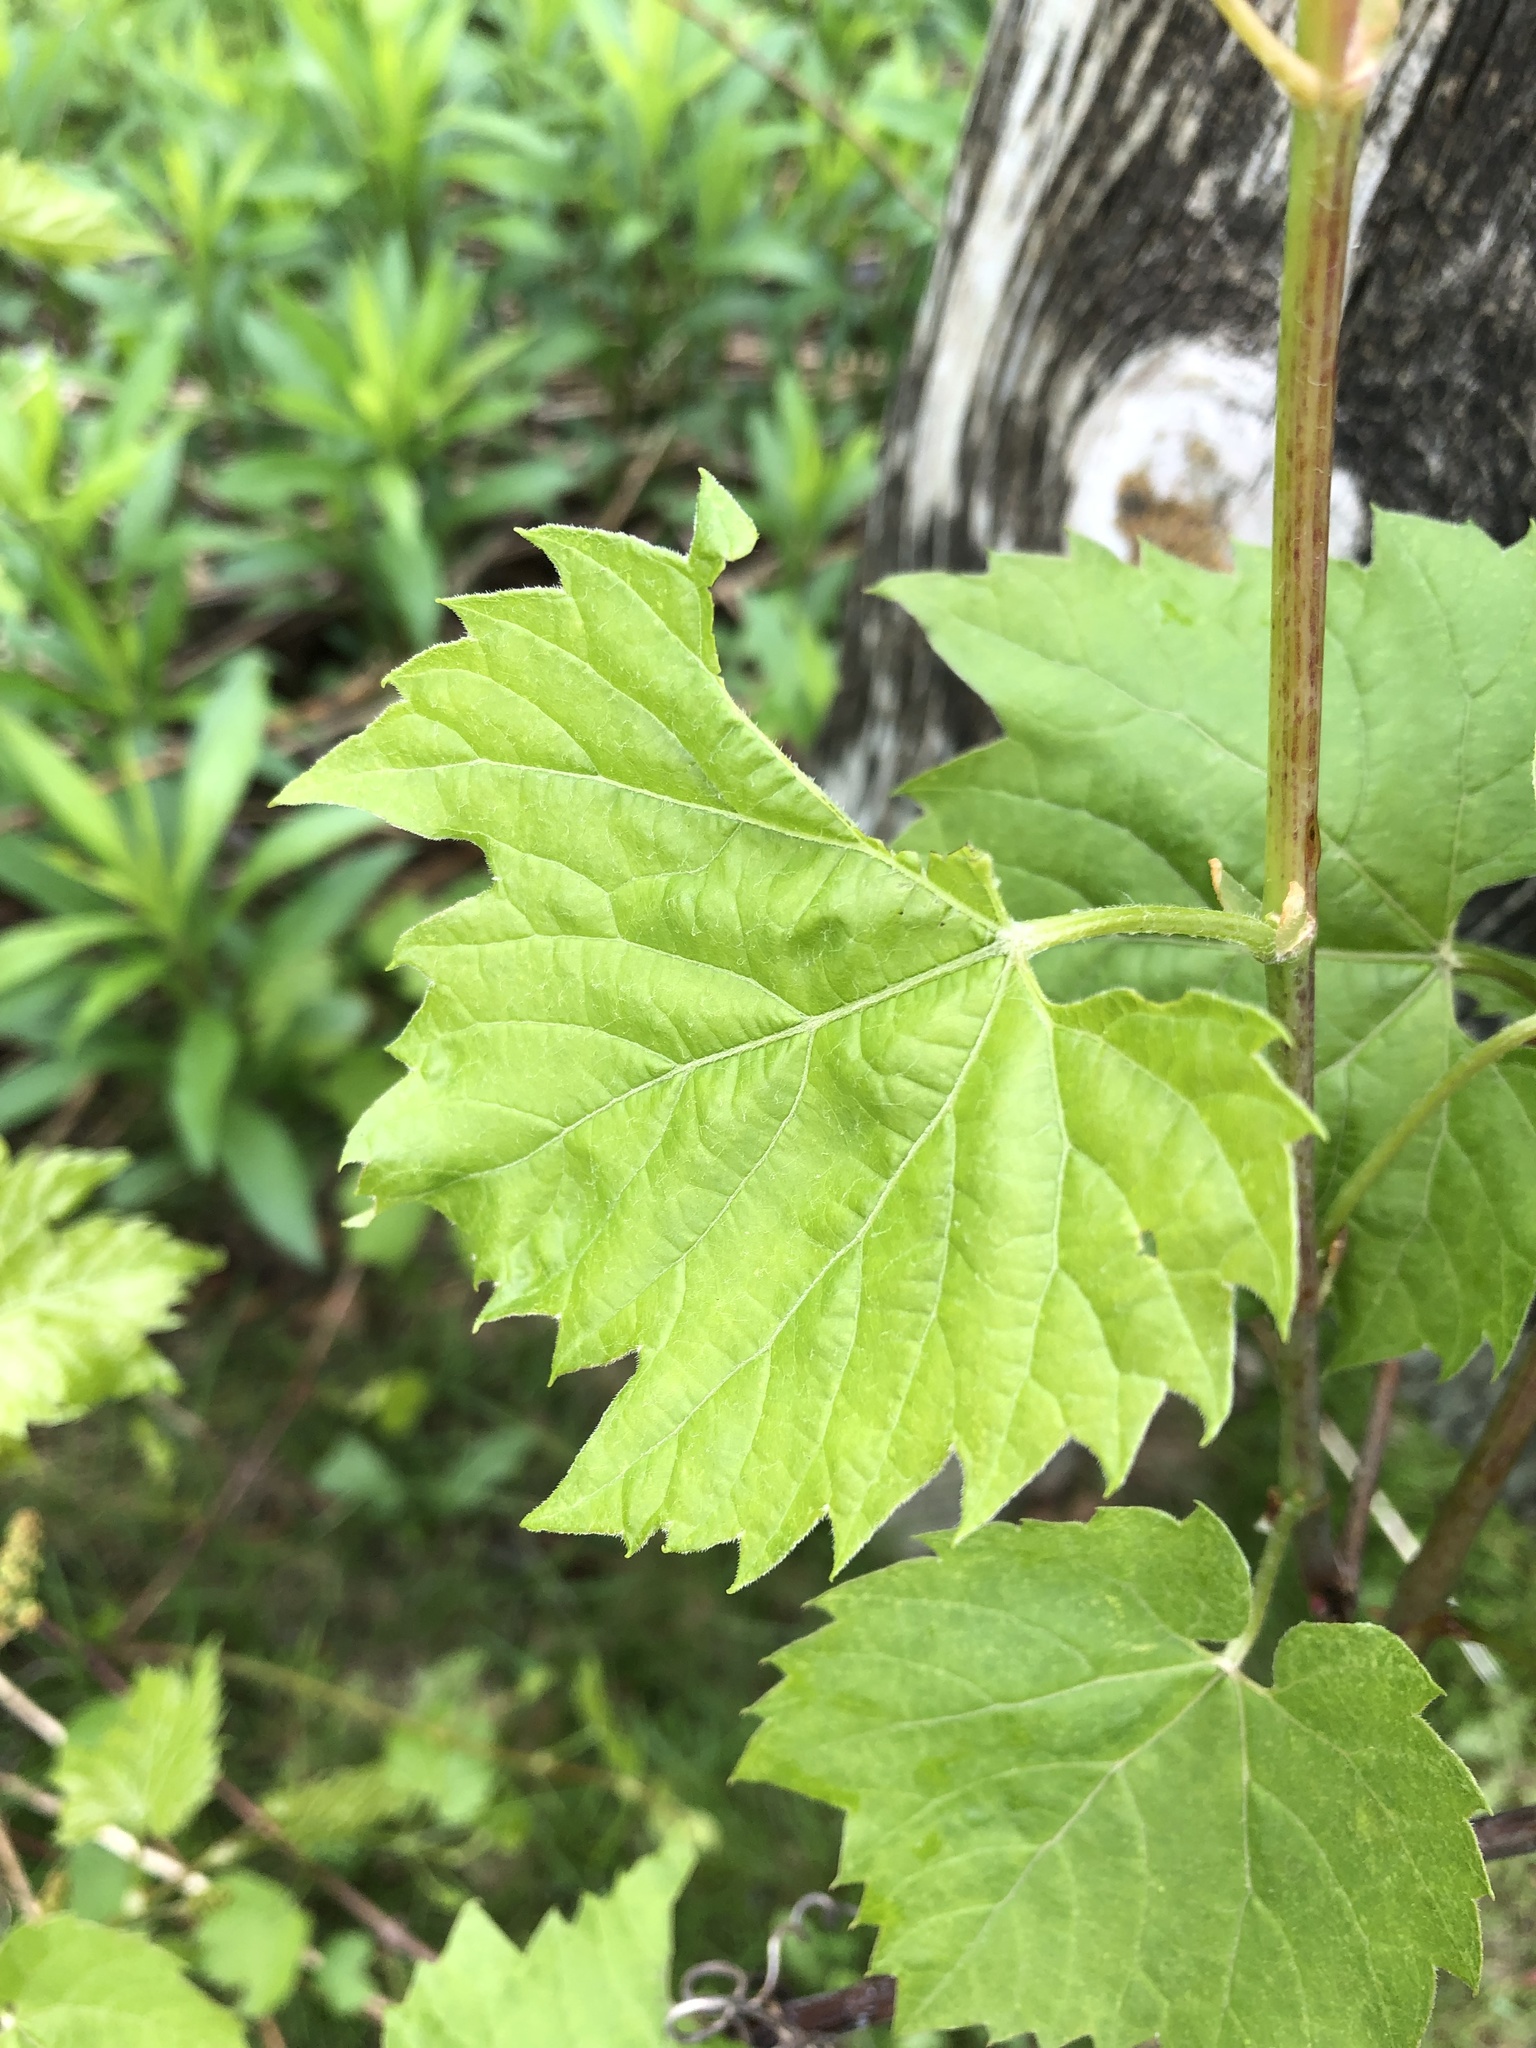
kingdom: Plantae
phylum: Tracheophyta
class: Magnoliopsida
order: Vitales
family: Vitaceae
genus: Vitis
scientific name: Vitis riparia
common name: Frost grape
